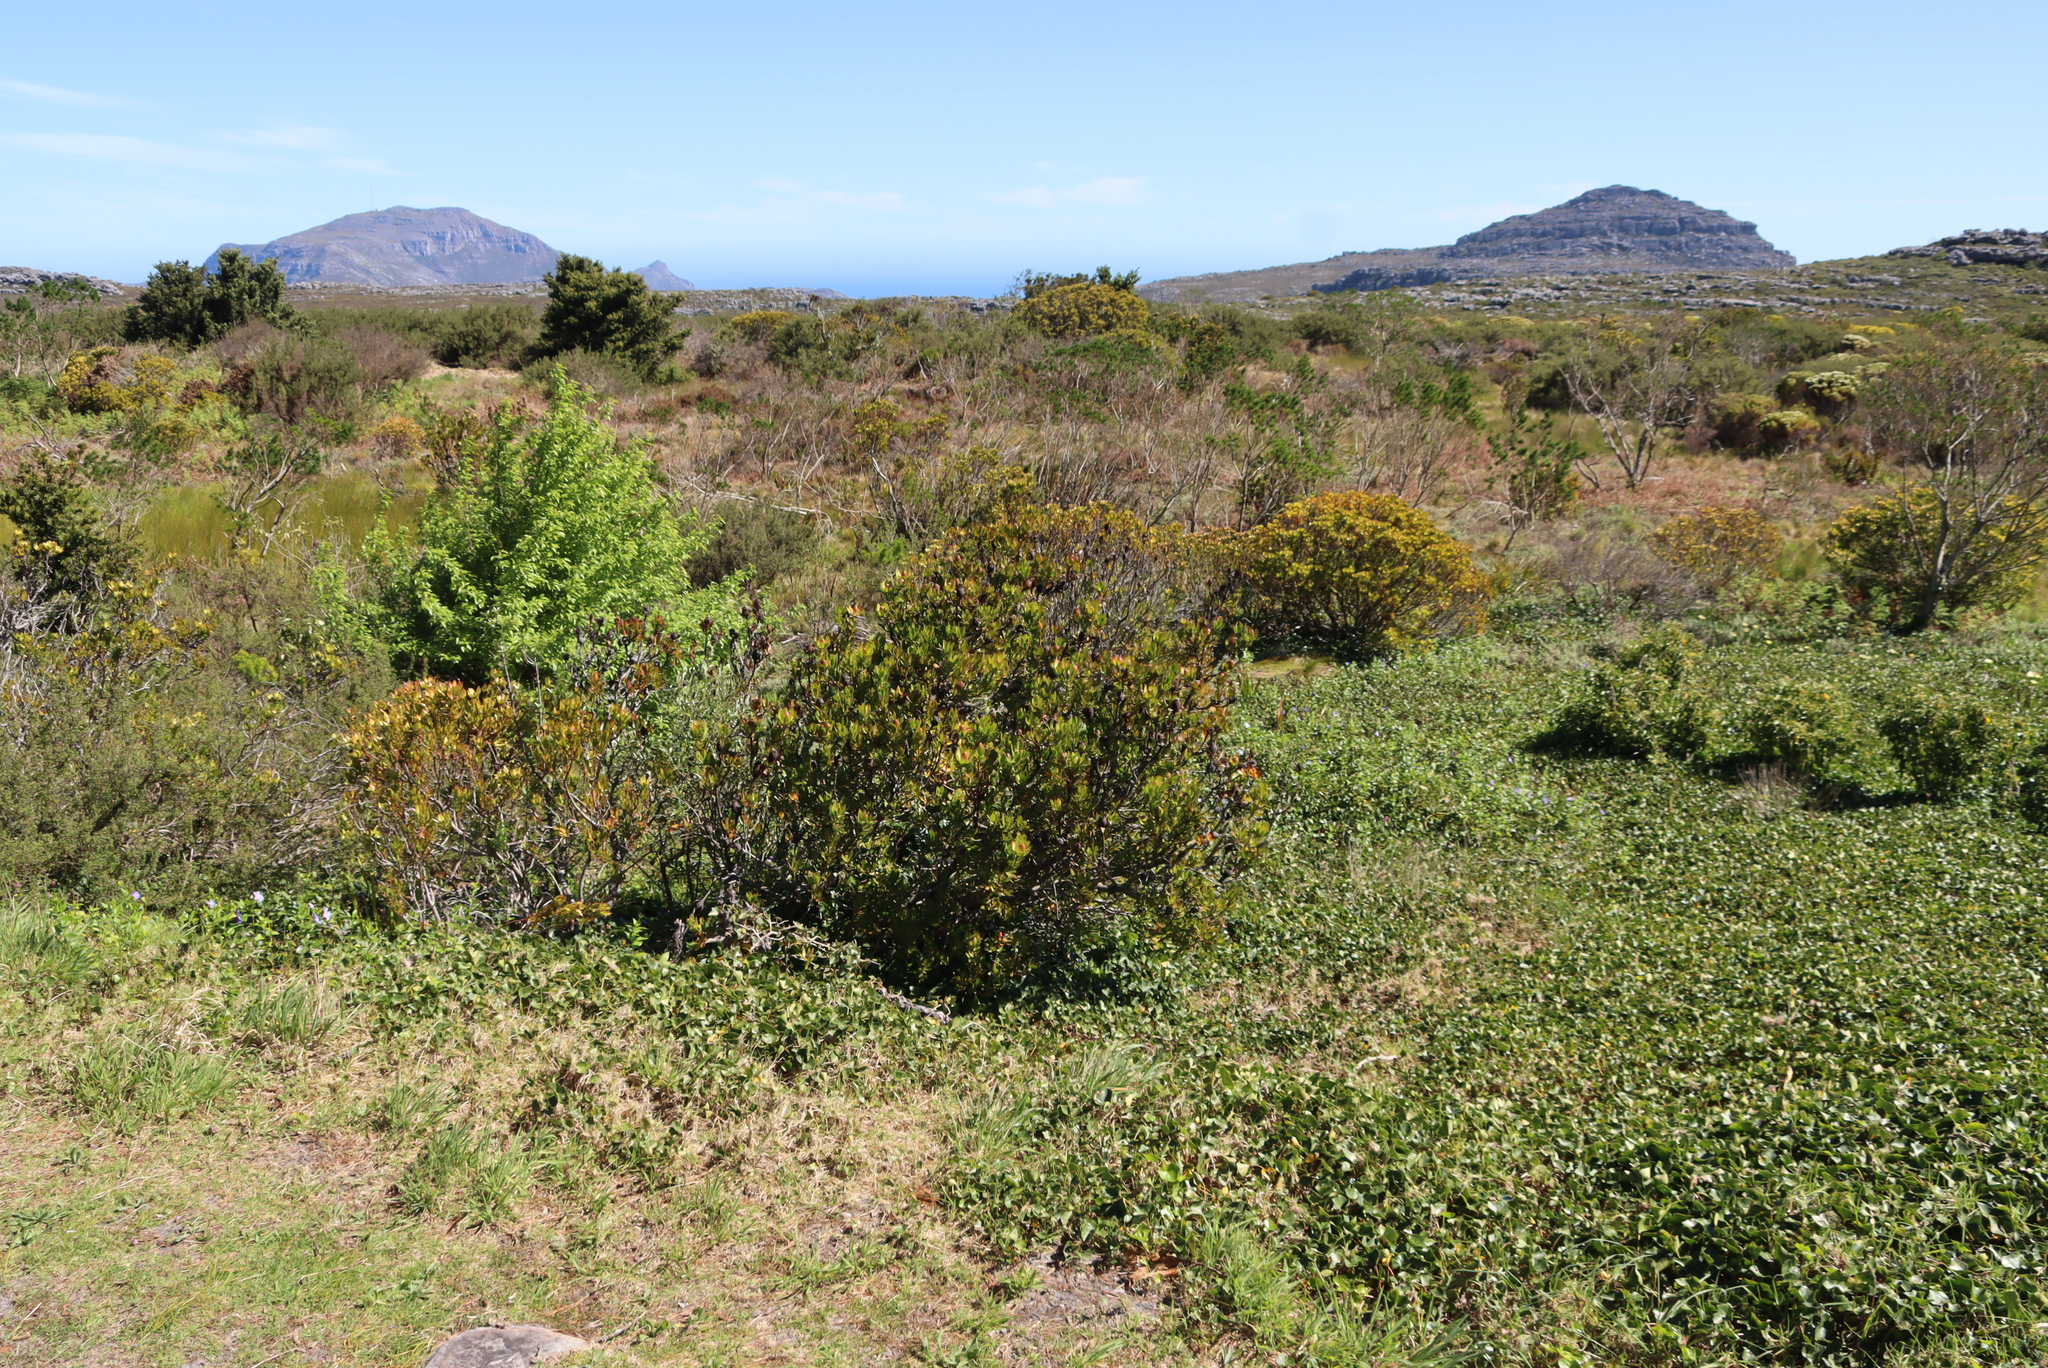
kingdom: Plantae
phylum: Tracheophyta
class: Magnoliopsida
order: Proteales
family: Proteaceae
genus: Leucadendron
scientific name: Leucadendron strobilinum
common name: Mountain rose
